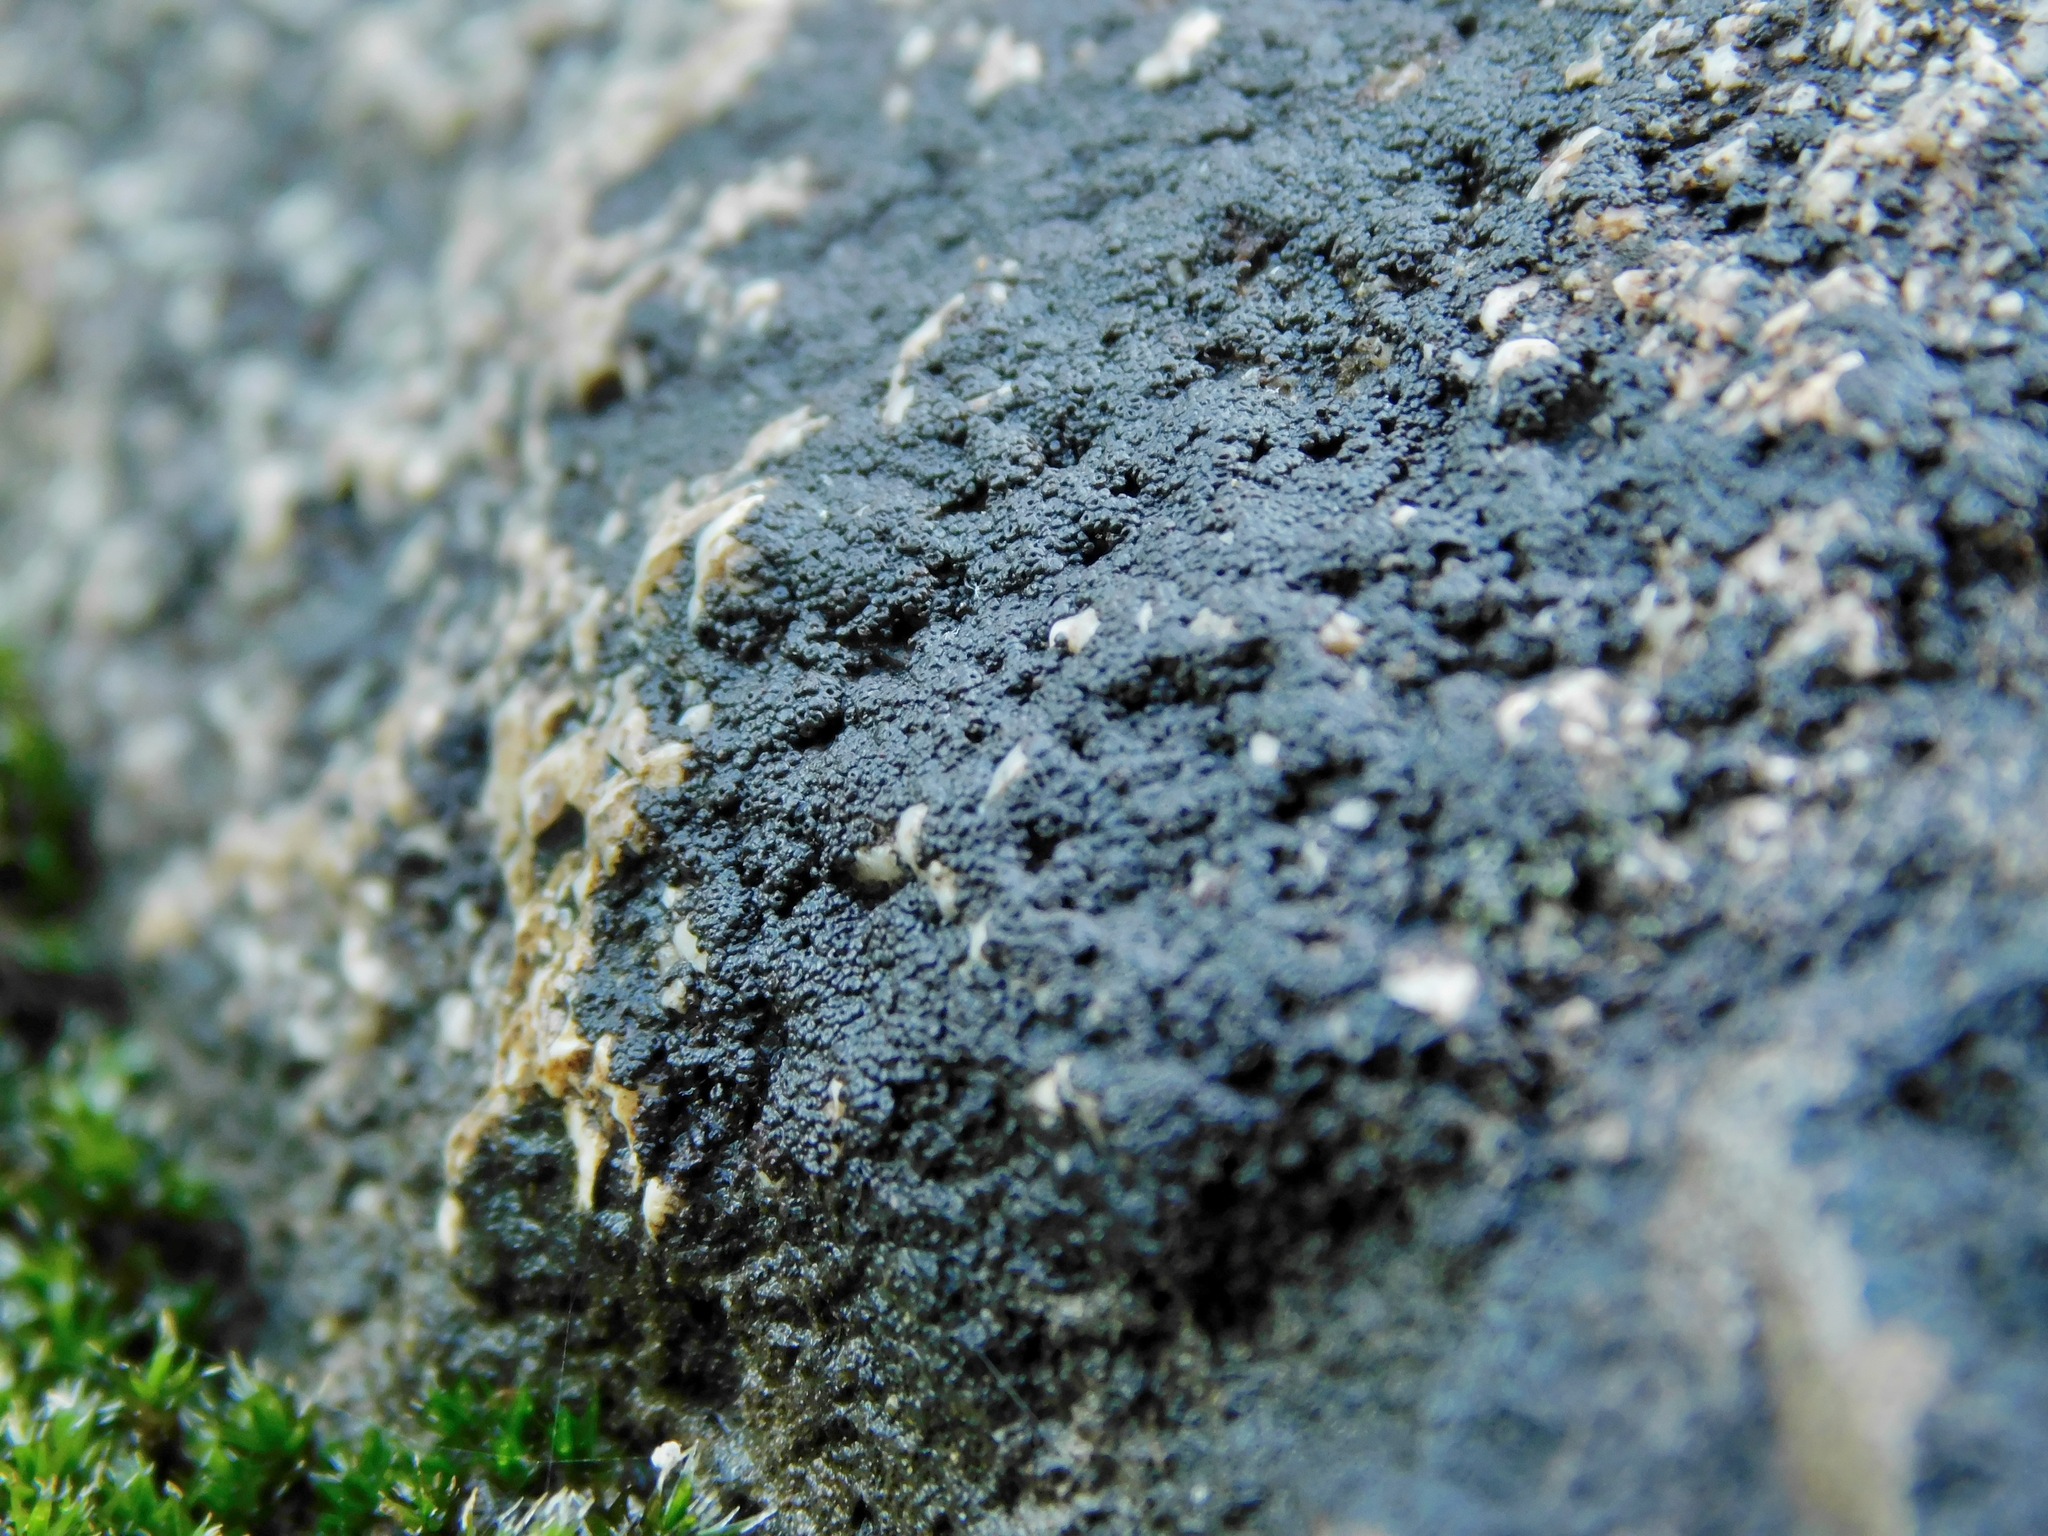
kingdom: Fungi
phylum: Ascomycota
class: Lichinomycetes
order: Lichinales
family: Lichinaceae
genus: Pyrenopsis
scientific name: Pyrenopsis polycocca
